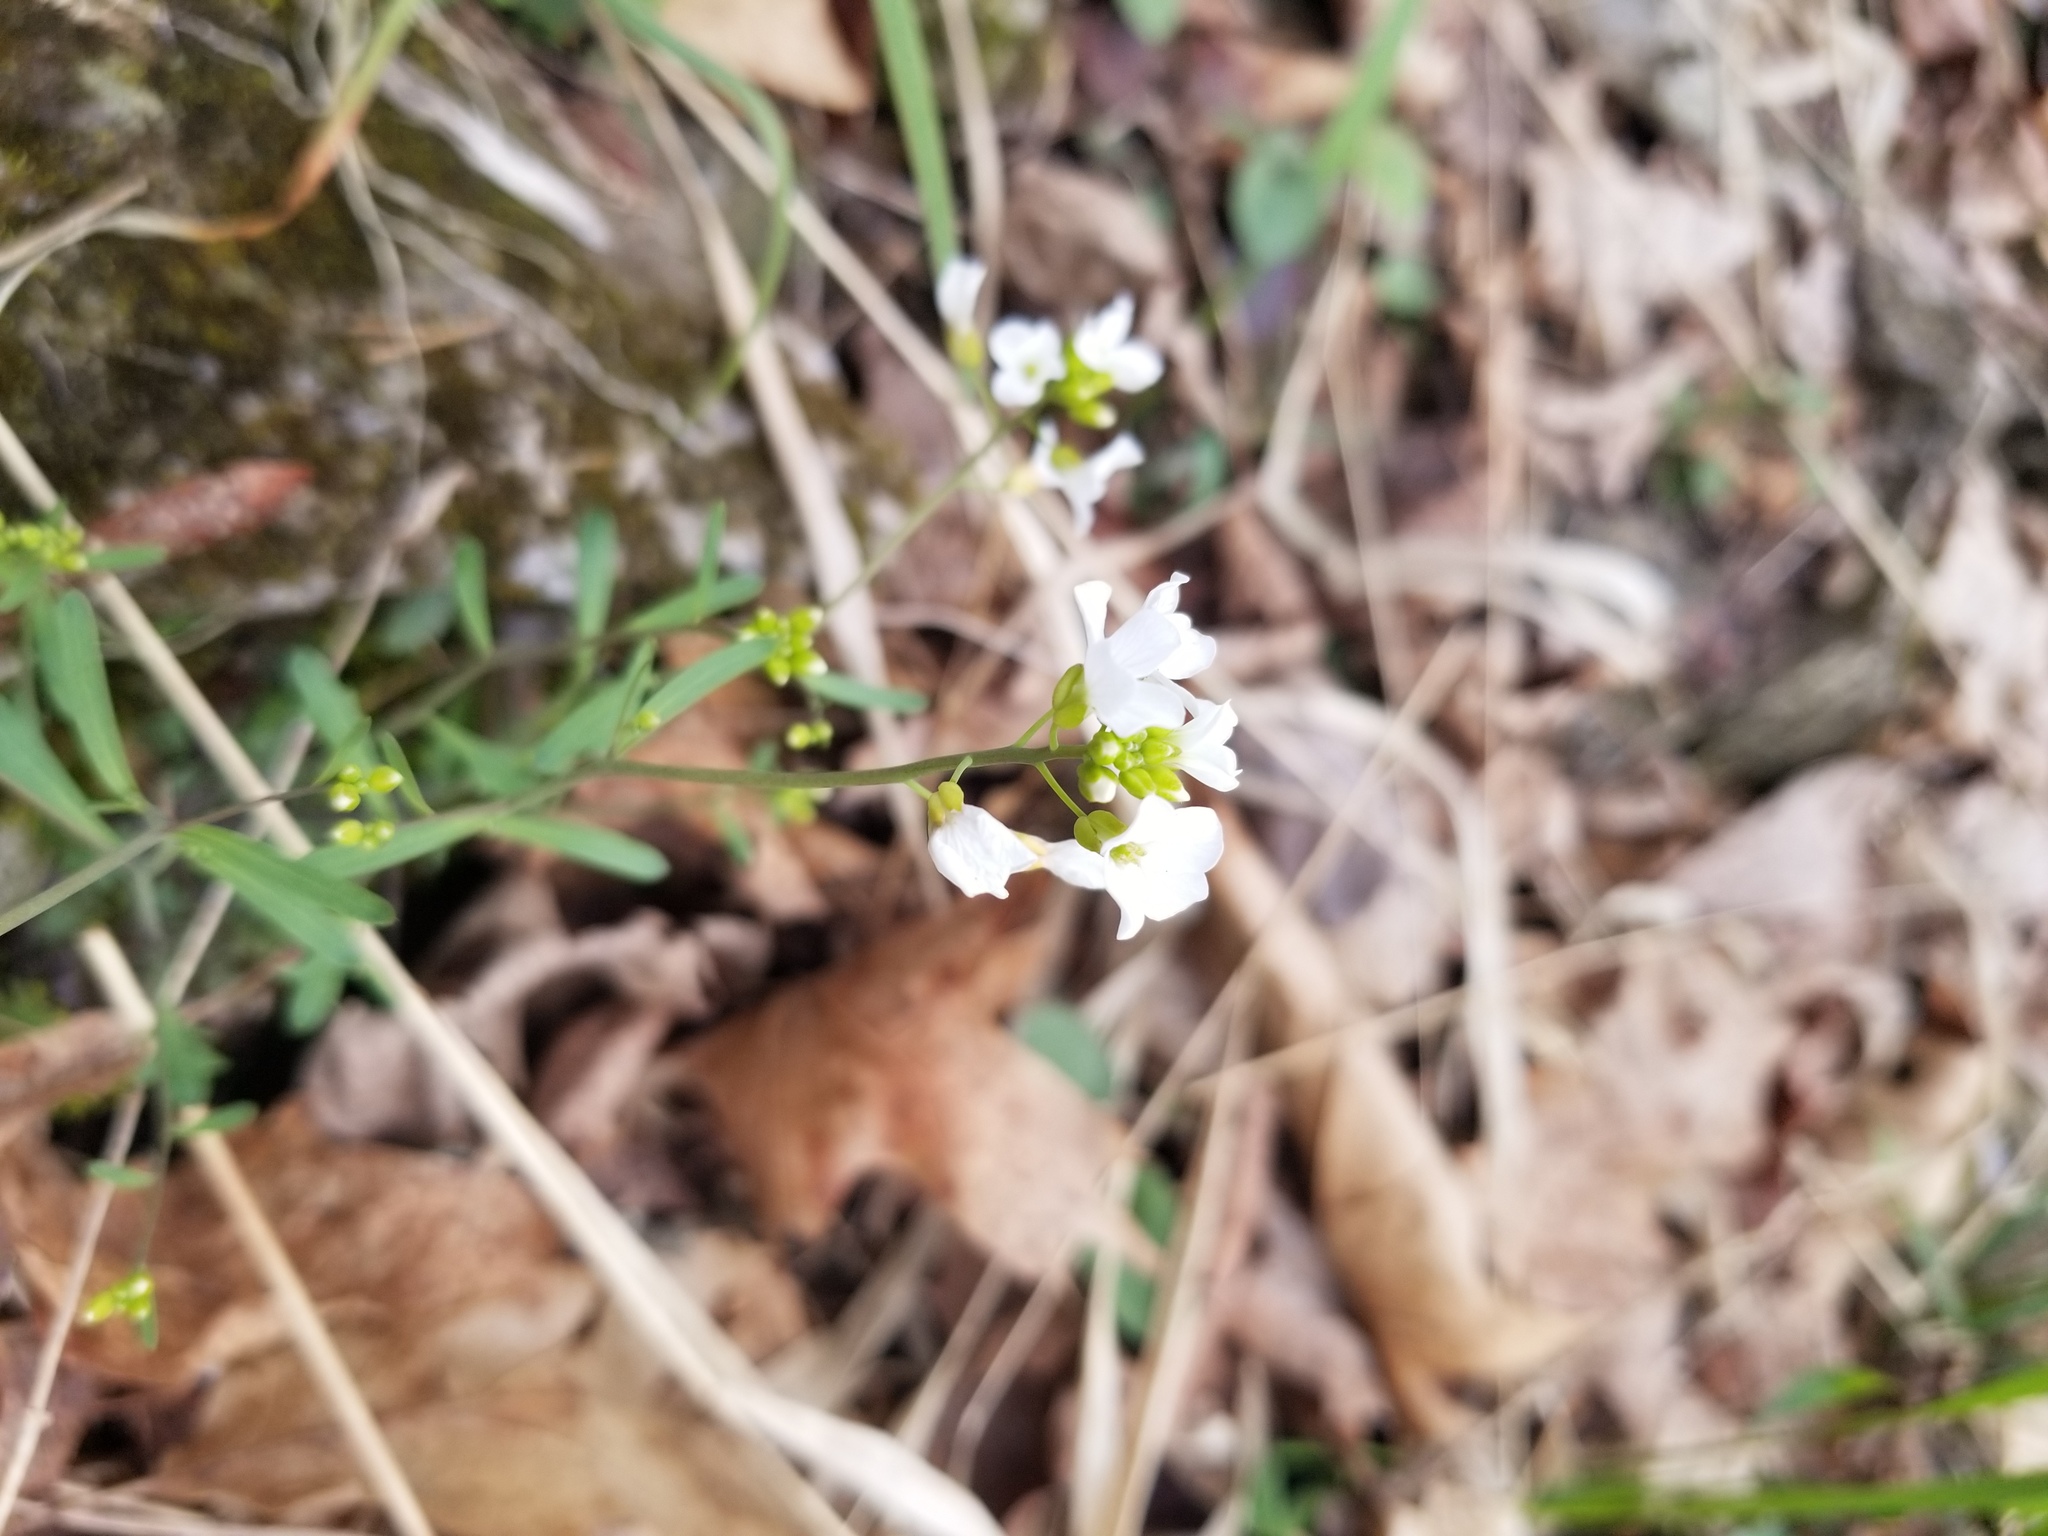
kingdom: Plantae
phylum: Tracheophyta
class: Magnoliopsida
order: Brassicales
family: Brassicaceae
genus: Arabidopsis
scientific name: Arabidopsis lyrata
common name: Lyrate rockcress
